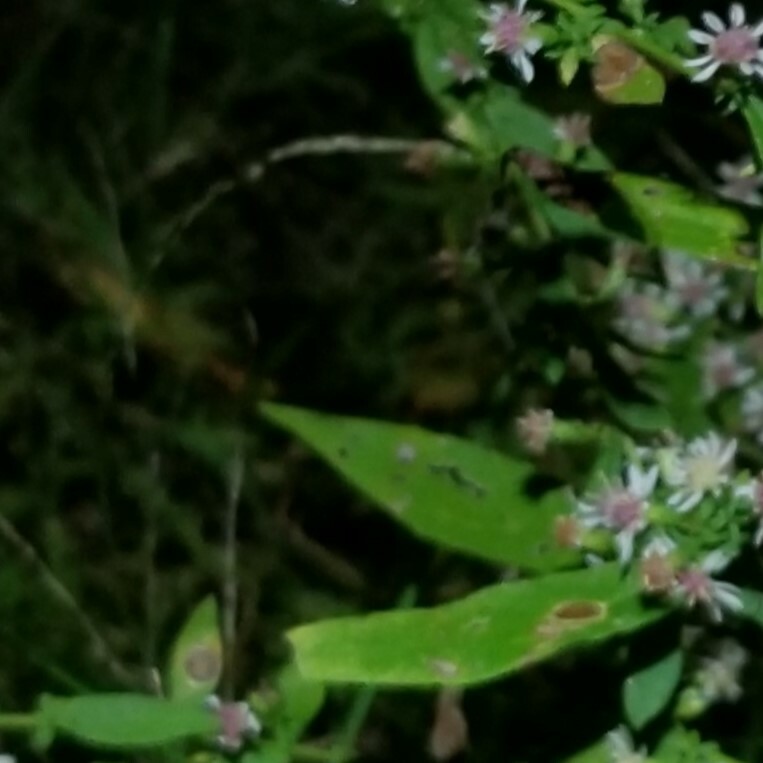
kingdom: Animalia
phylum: Arthropoda
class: Insecta
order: Diptera
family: Cecidomyiidae
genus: Asteromyia
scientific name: Asteromyia laeviana
